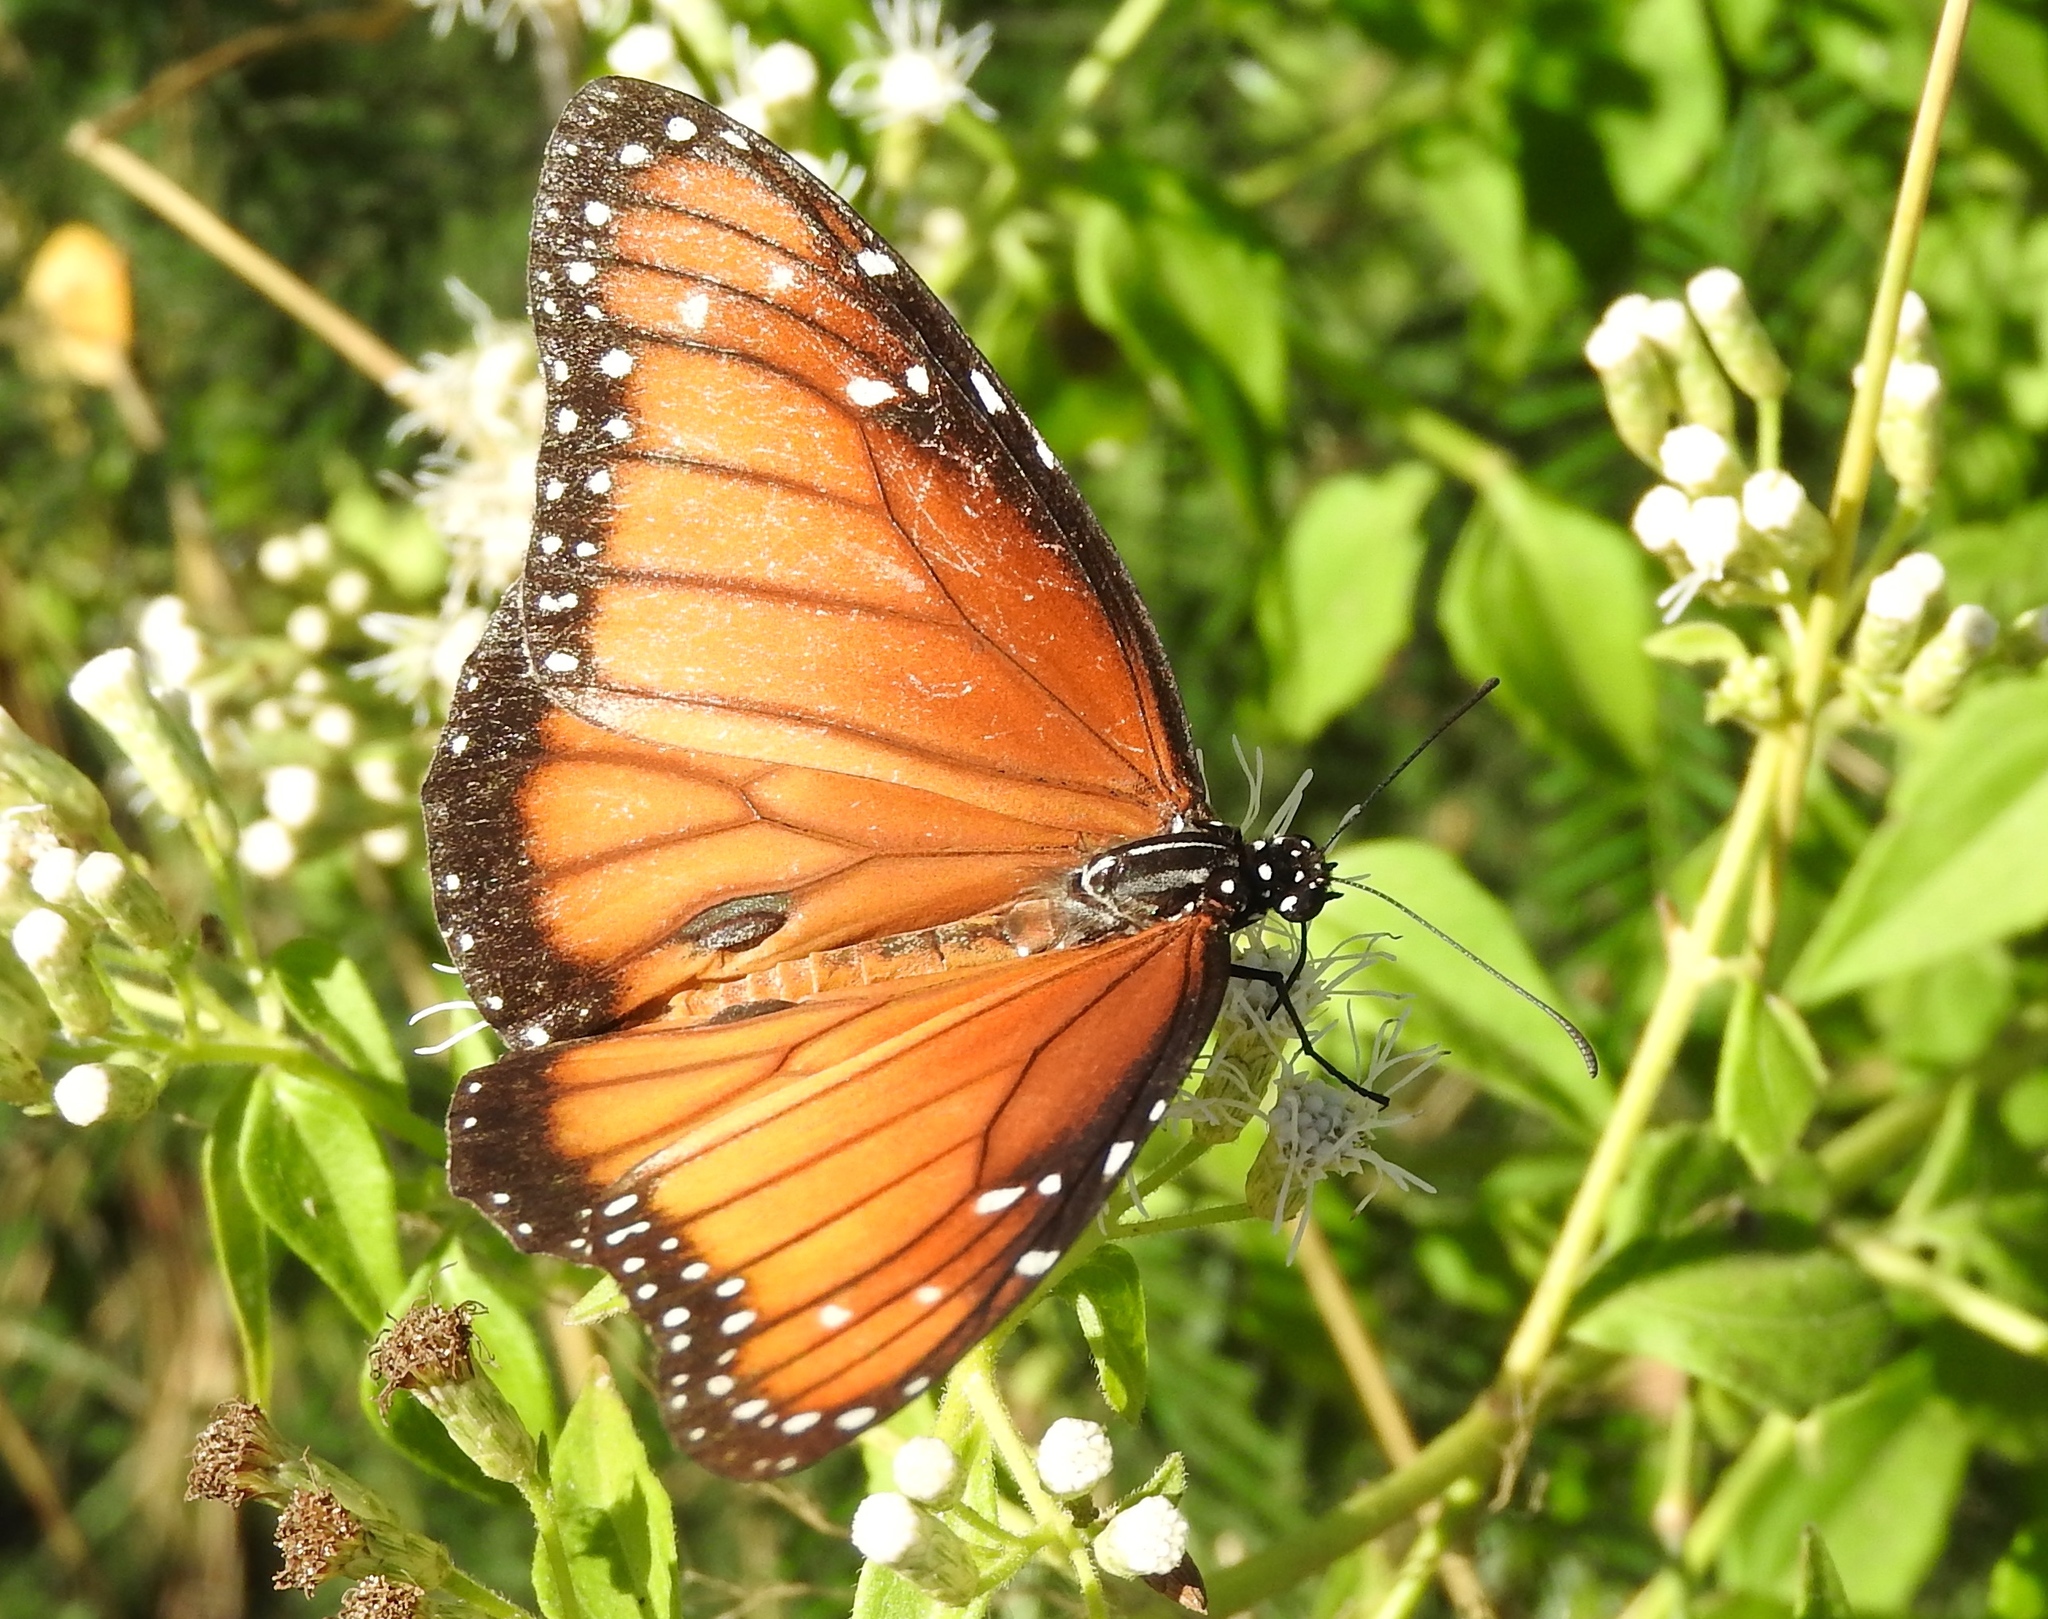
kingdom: Animalia
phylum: Arthropoda
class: Insecta
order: Lepidoptera
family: Nymphalidae
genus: Danaus
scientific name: Danaus eresimus
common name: Soldier
